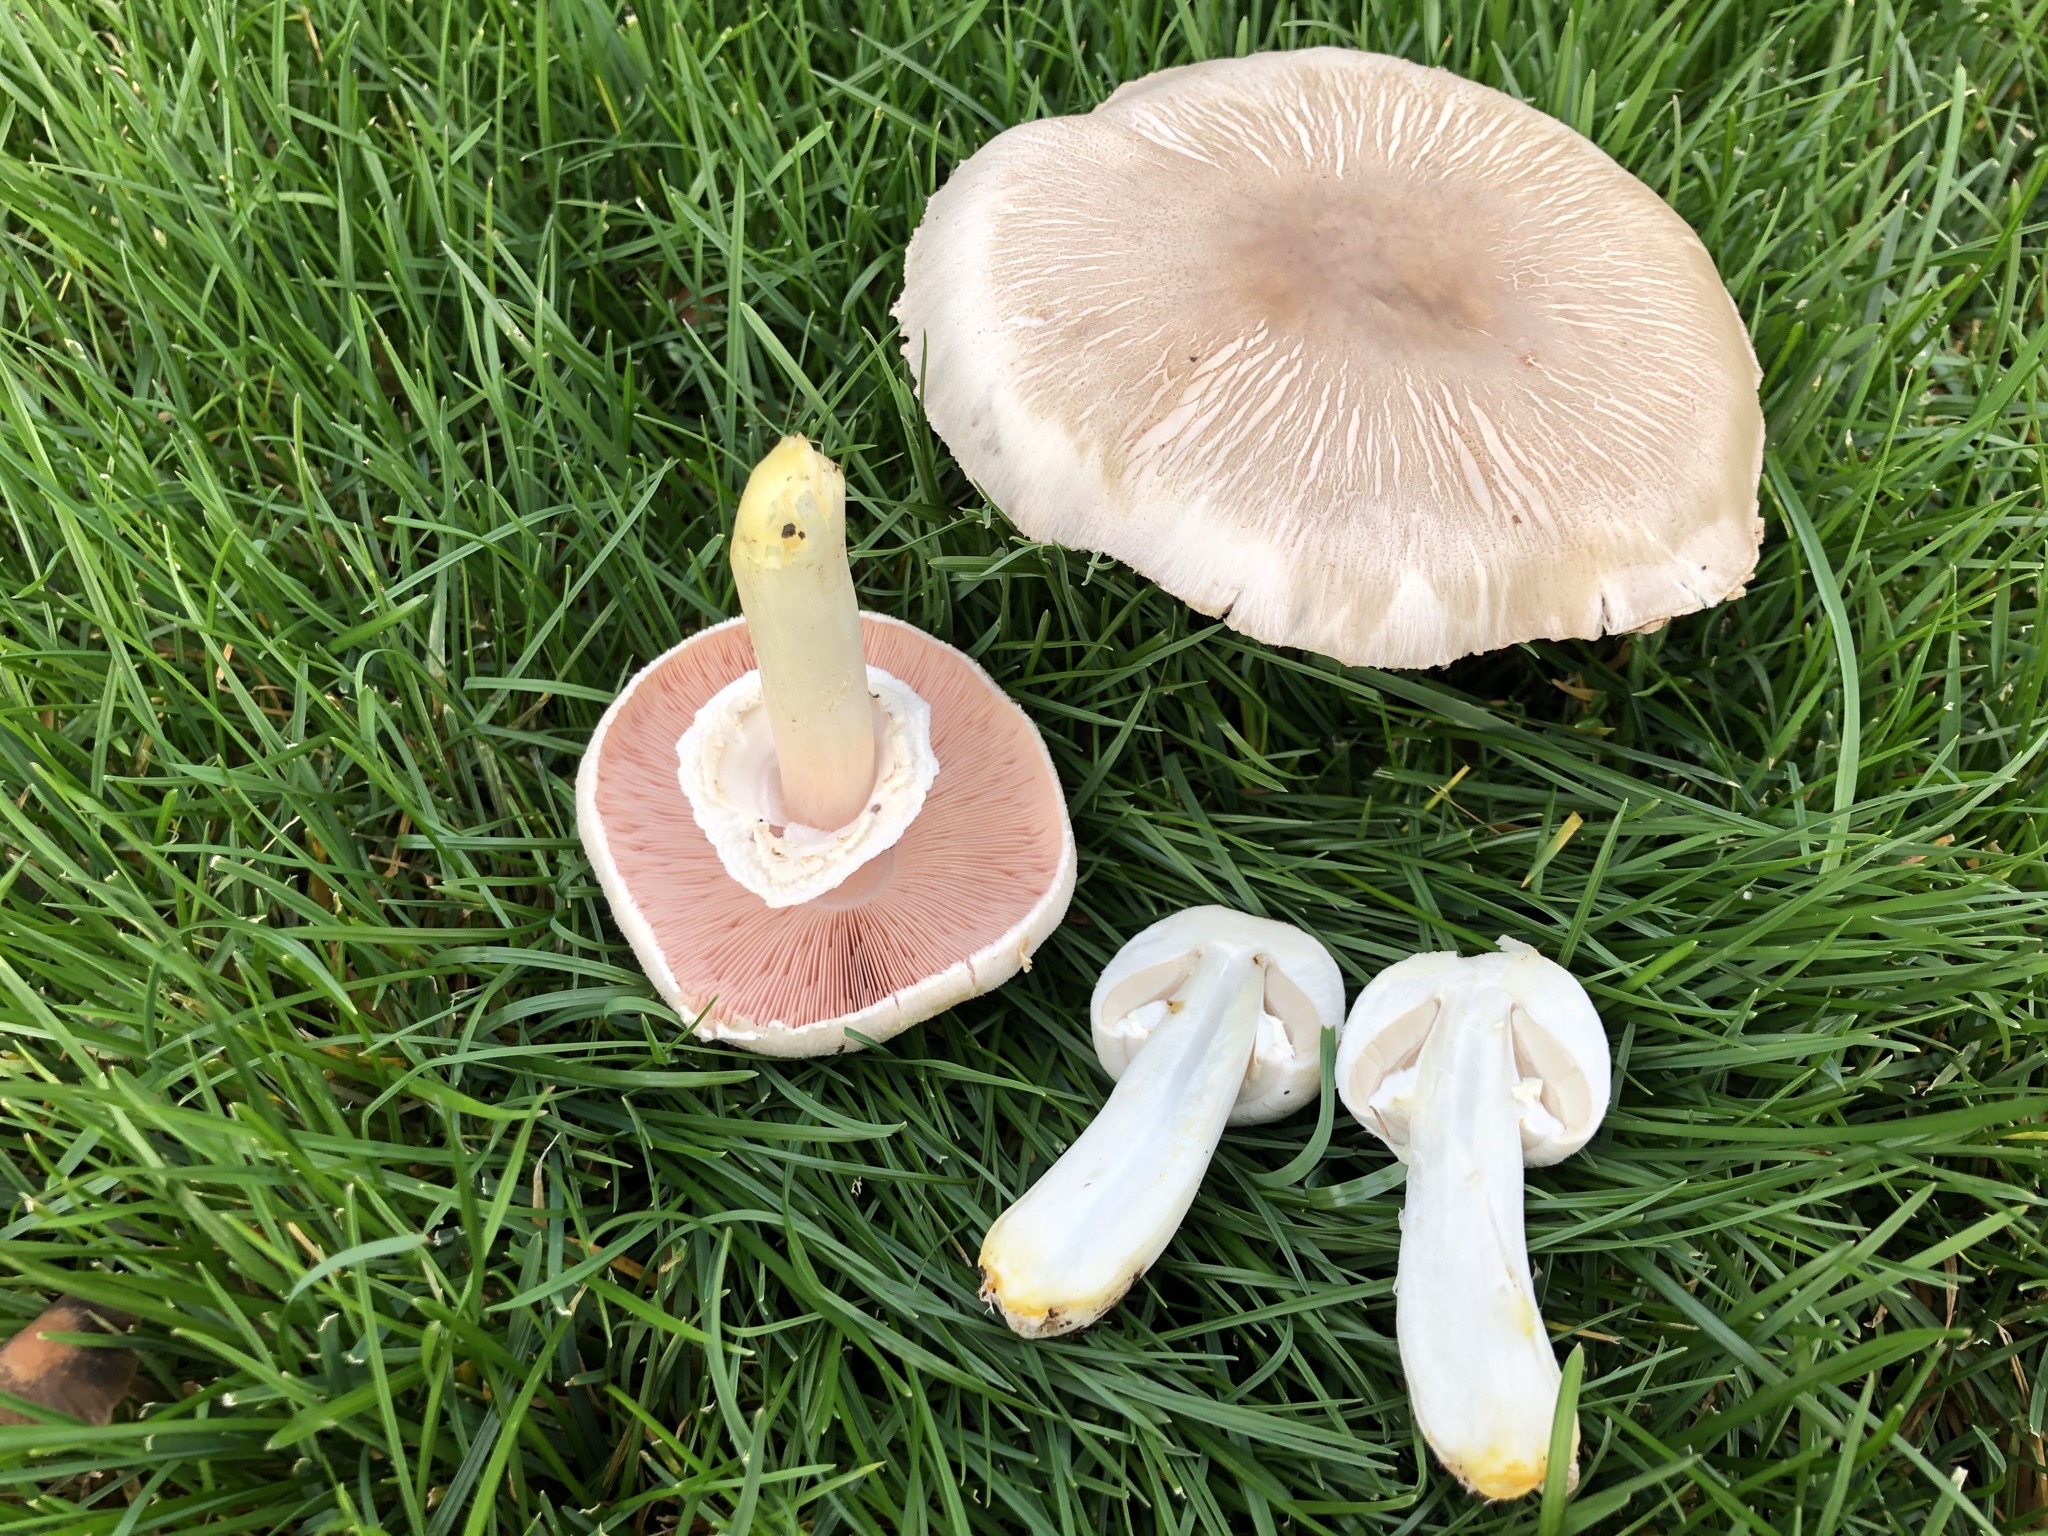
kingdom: Fungi
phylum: Basidiomycota
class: Agaricomycetes
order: Agaricales
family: Agaricaceae
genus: Agaricus
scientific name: Agaricus xanthodermus
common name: Yellow stainer
